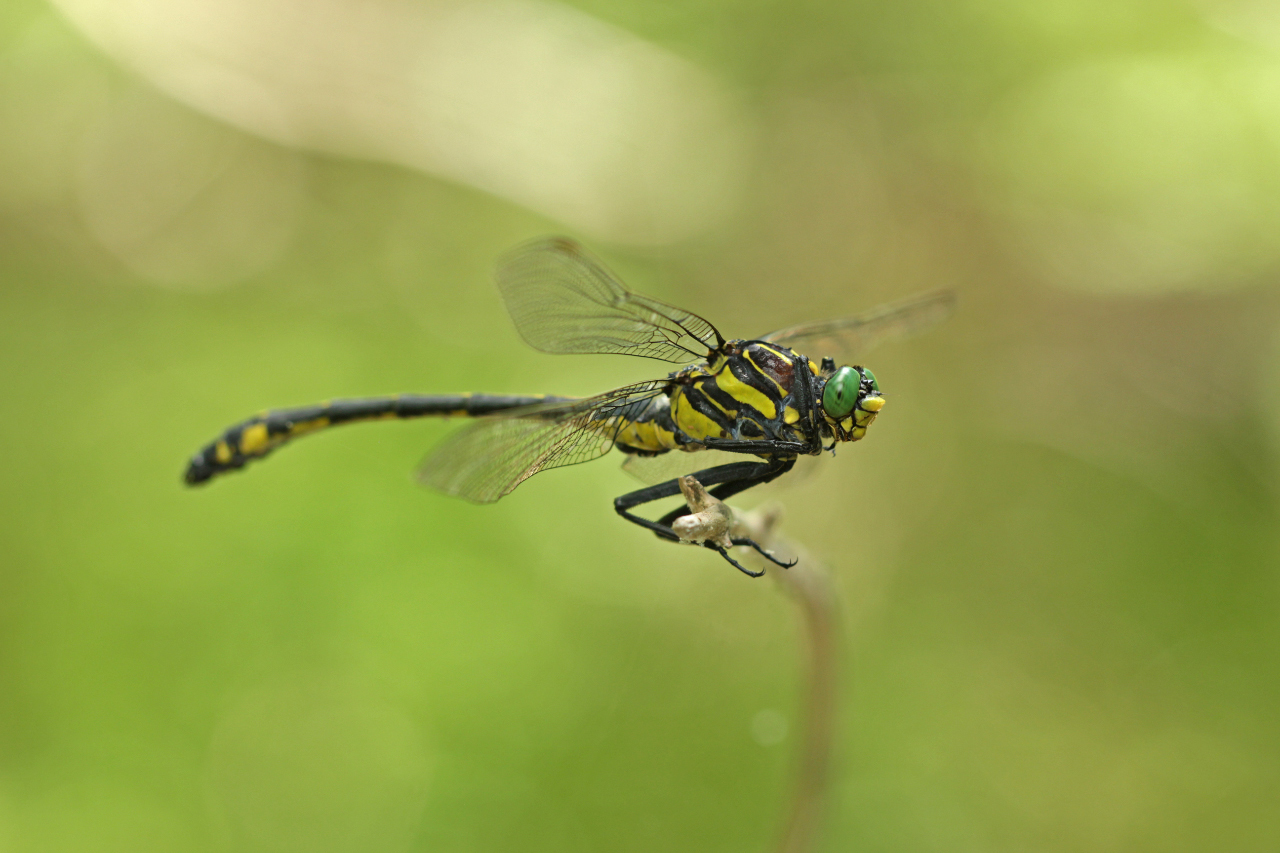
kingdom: Animalia
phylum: Arthropoda
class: Insecta
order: Odonata
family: Gomphidae
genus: Hagenius
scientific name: Hagenius brevistylus
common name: Dragonhunter
